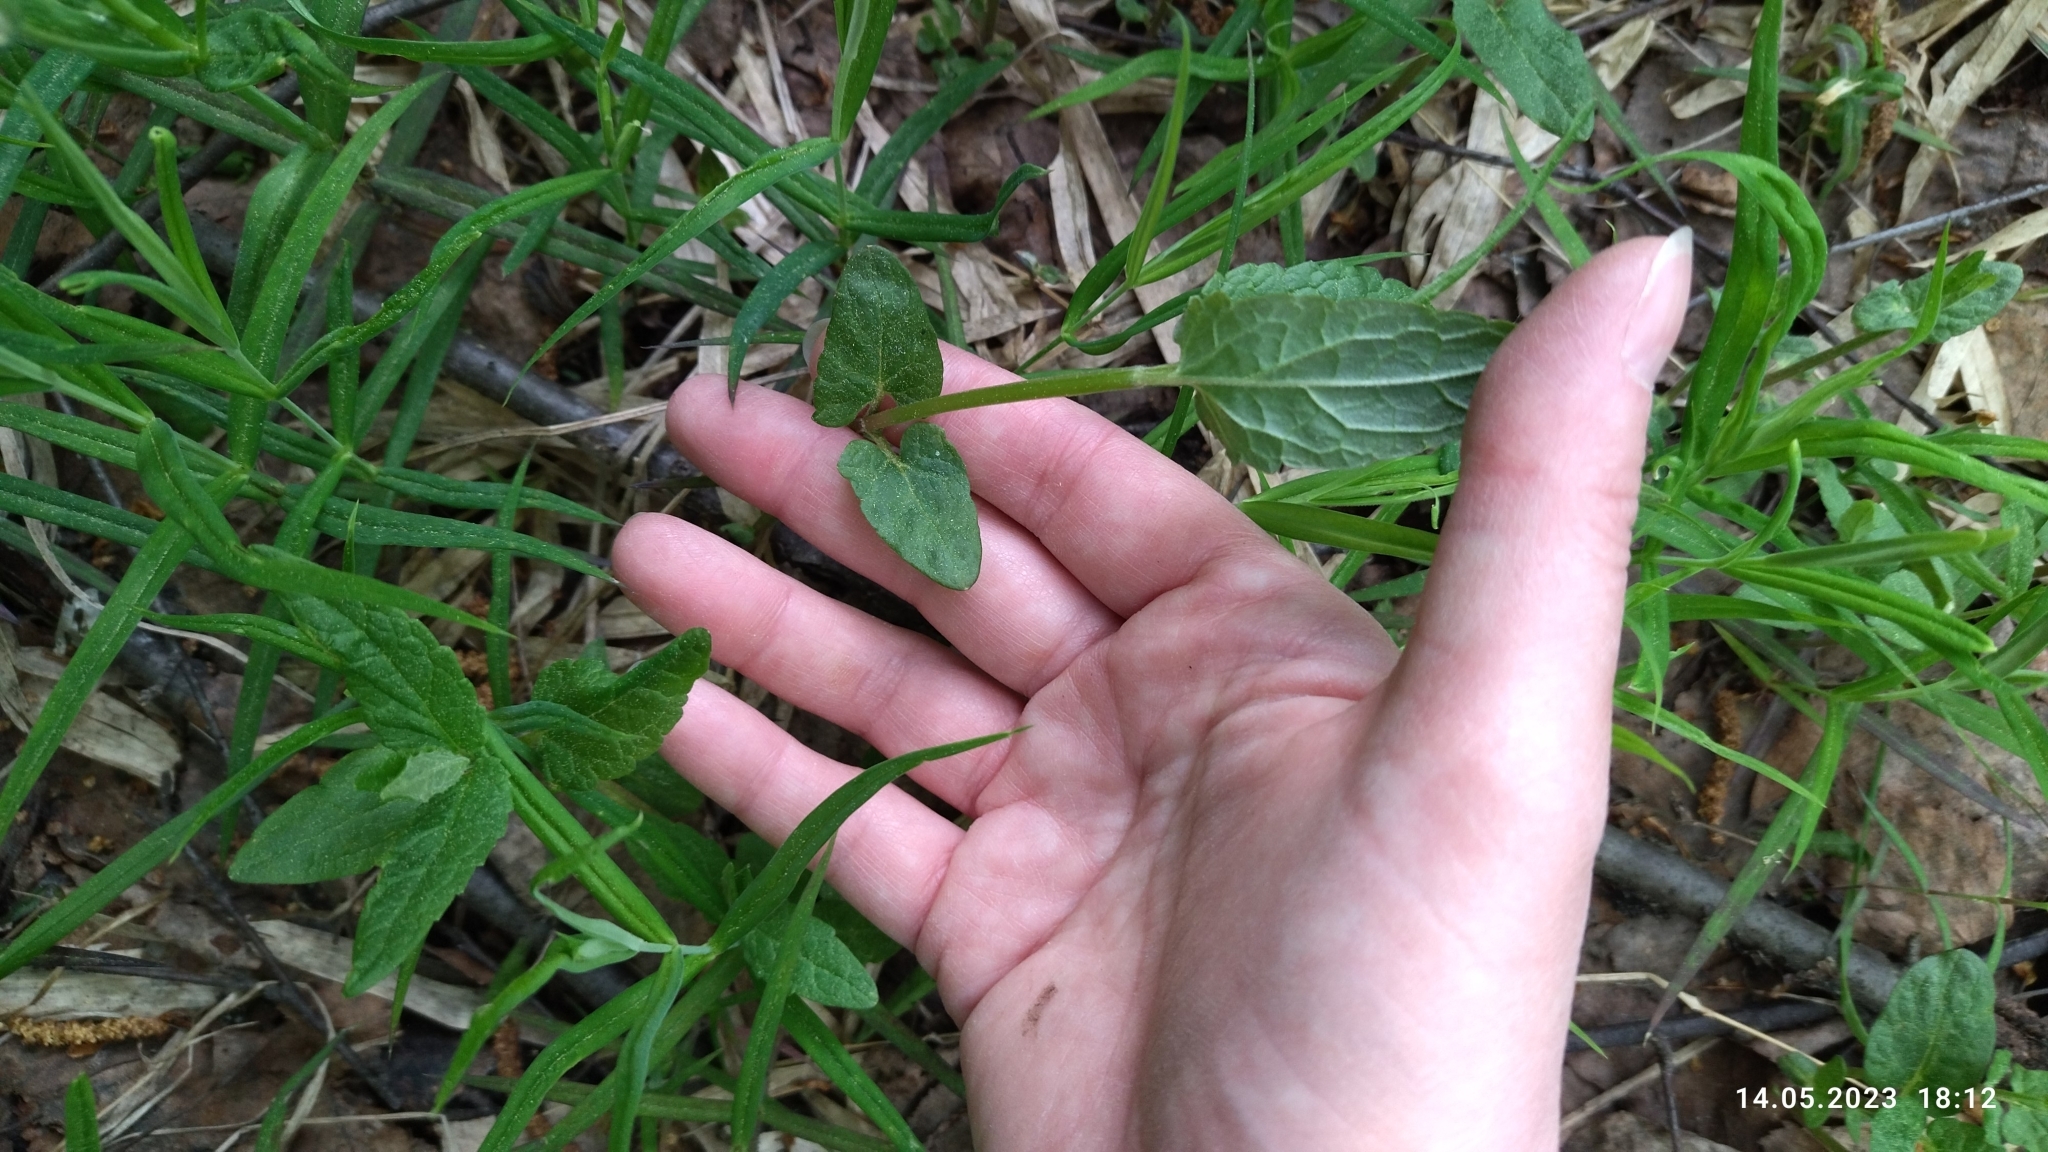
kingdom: Plantae
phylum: Tracheophyta
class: Magnoliopsida
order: Lamiales
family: Lamiaceae
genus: Scutellaria
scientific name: Scutellaria galericulata
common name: Skullcap
